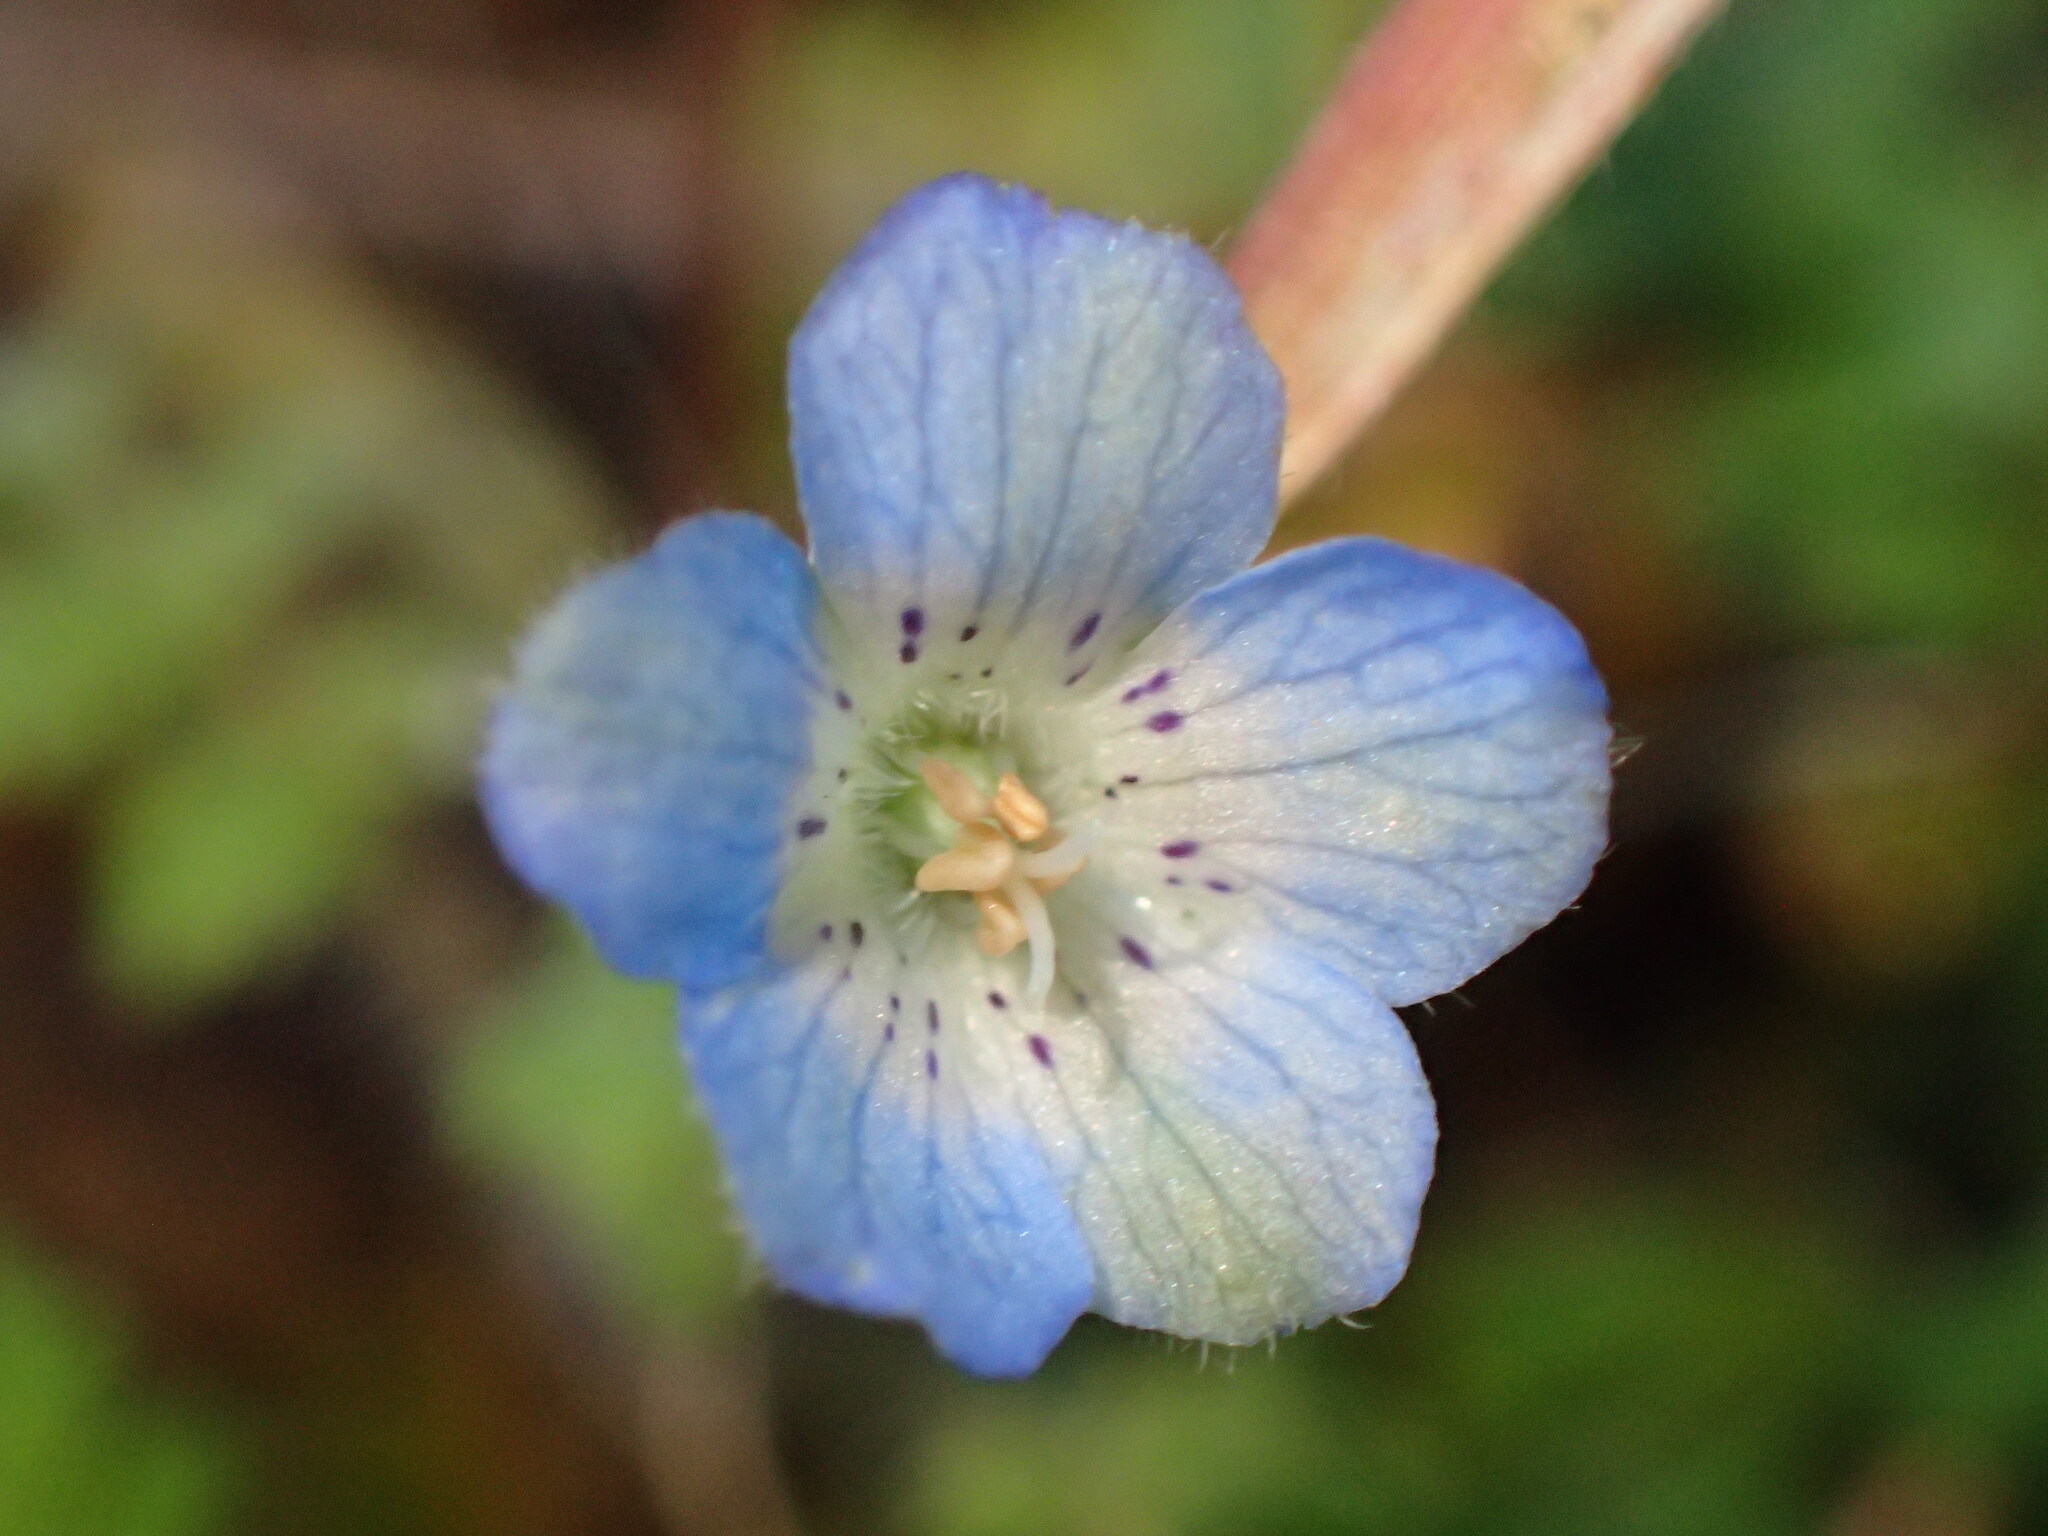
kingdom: Plantae
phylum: Tracheophyta
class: Magnoliopsida
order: Boraginales
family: Hydrophyllaceae
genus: Nemophila
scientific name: Nemophila menziesii
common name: Baby's-blue-eyes
